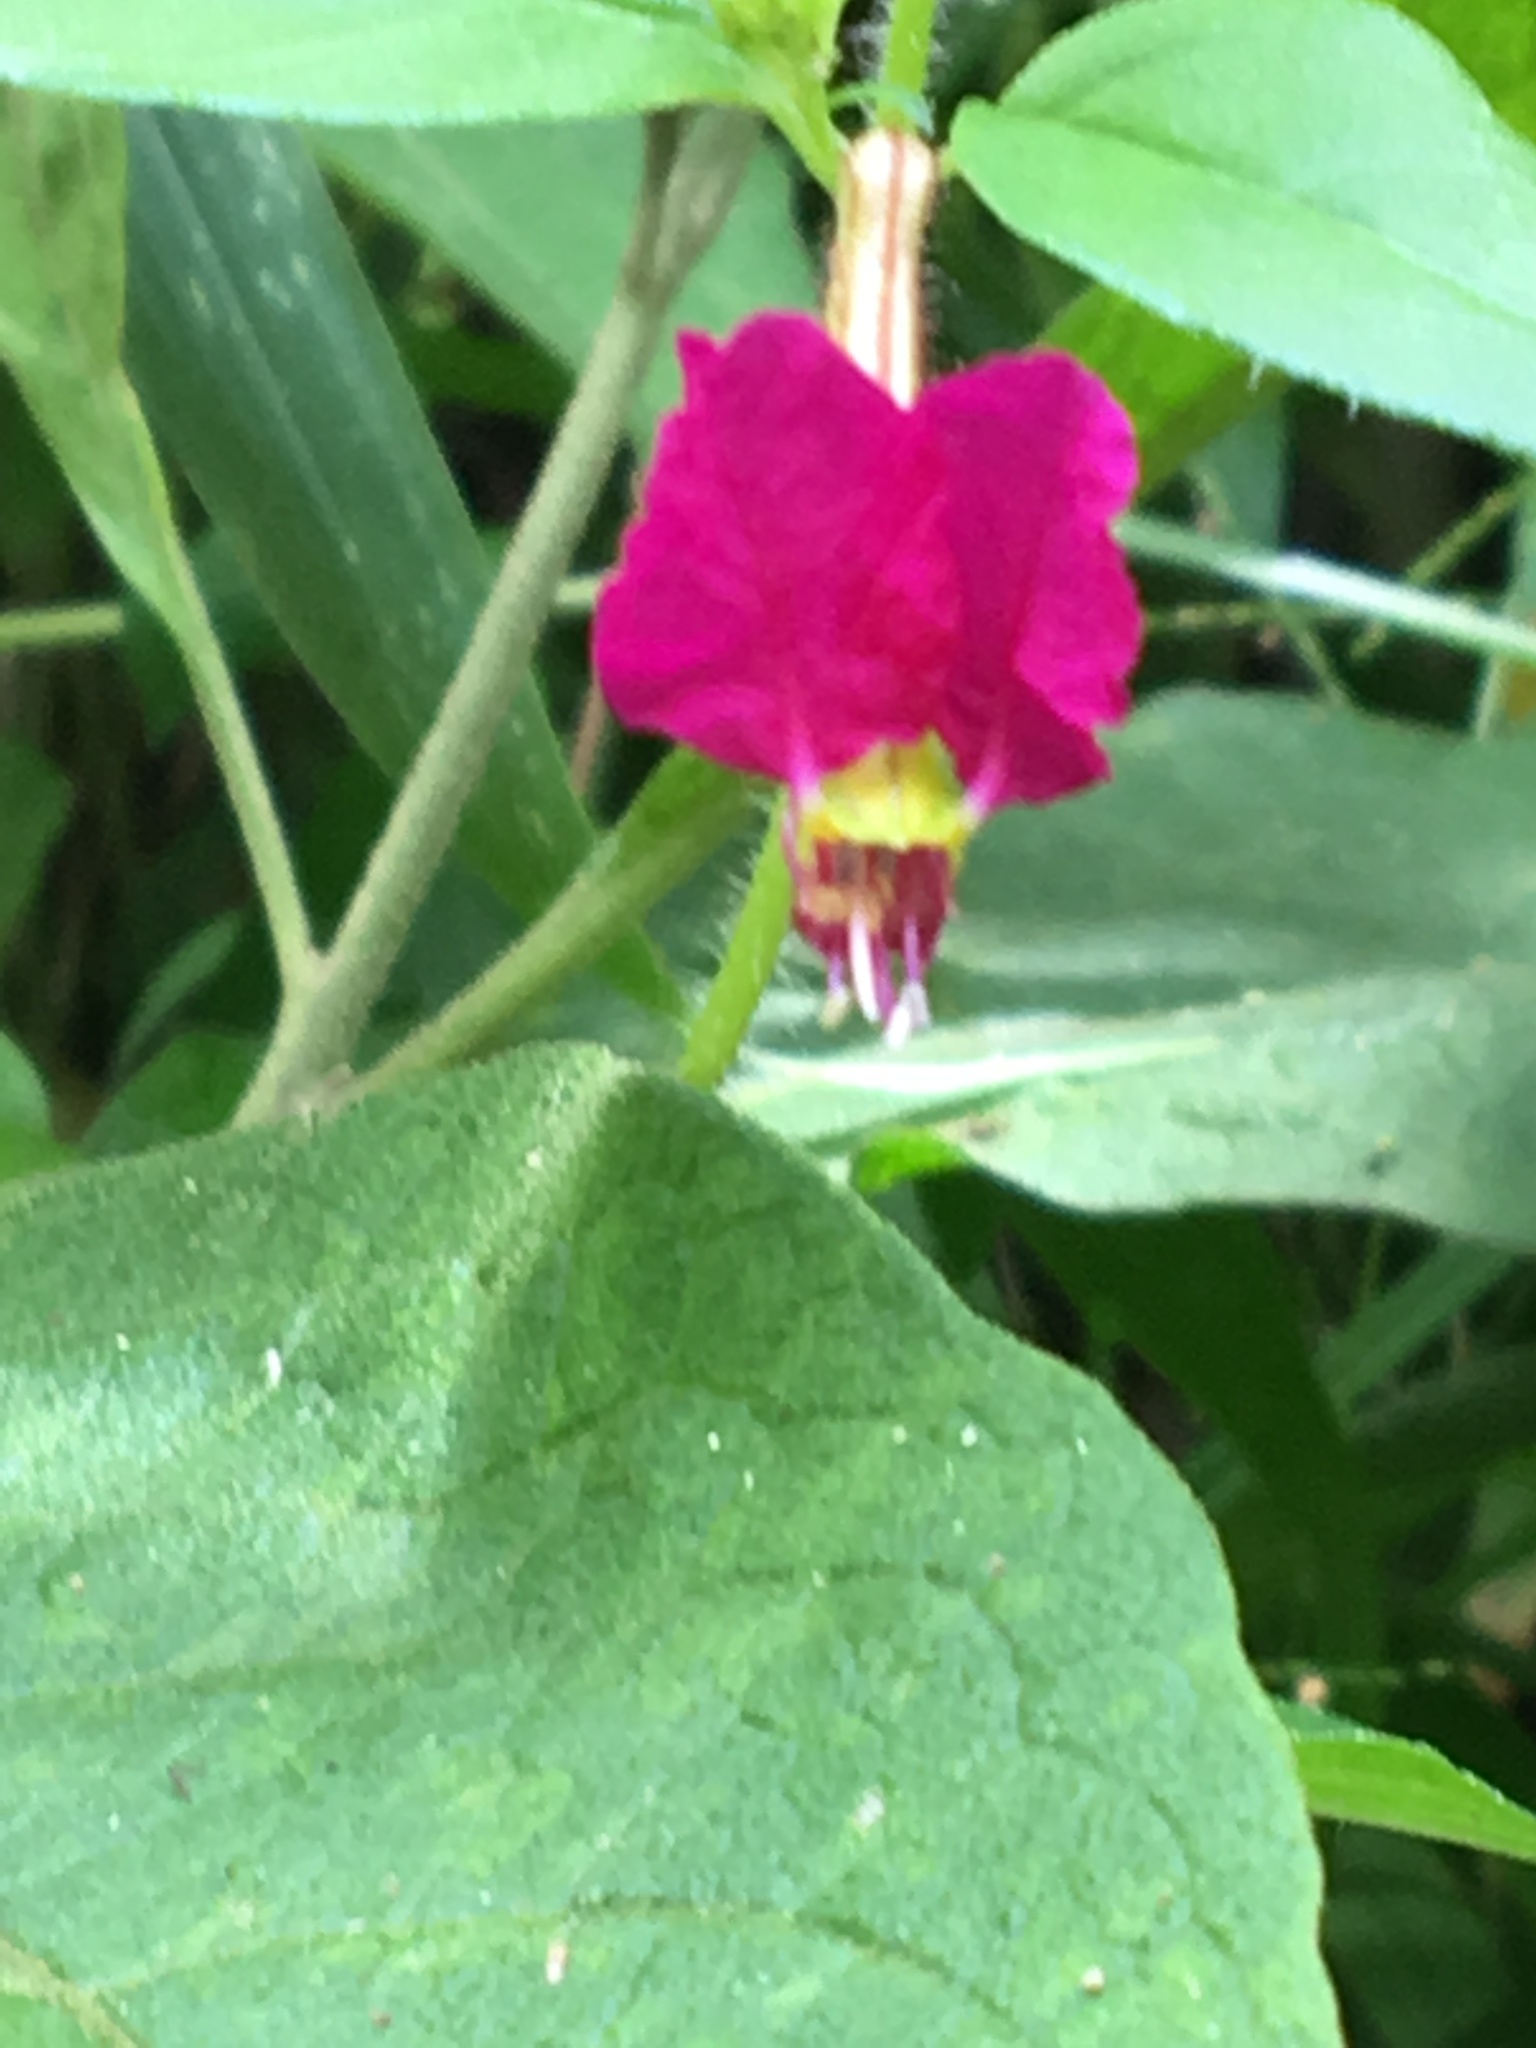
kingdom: Plantae
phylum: Tracheophyta
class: Magnoliopsida
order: Myrtales
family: Lythraceae
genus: Cuphea
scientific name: Cuphea cordata
